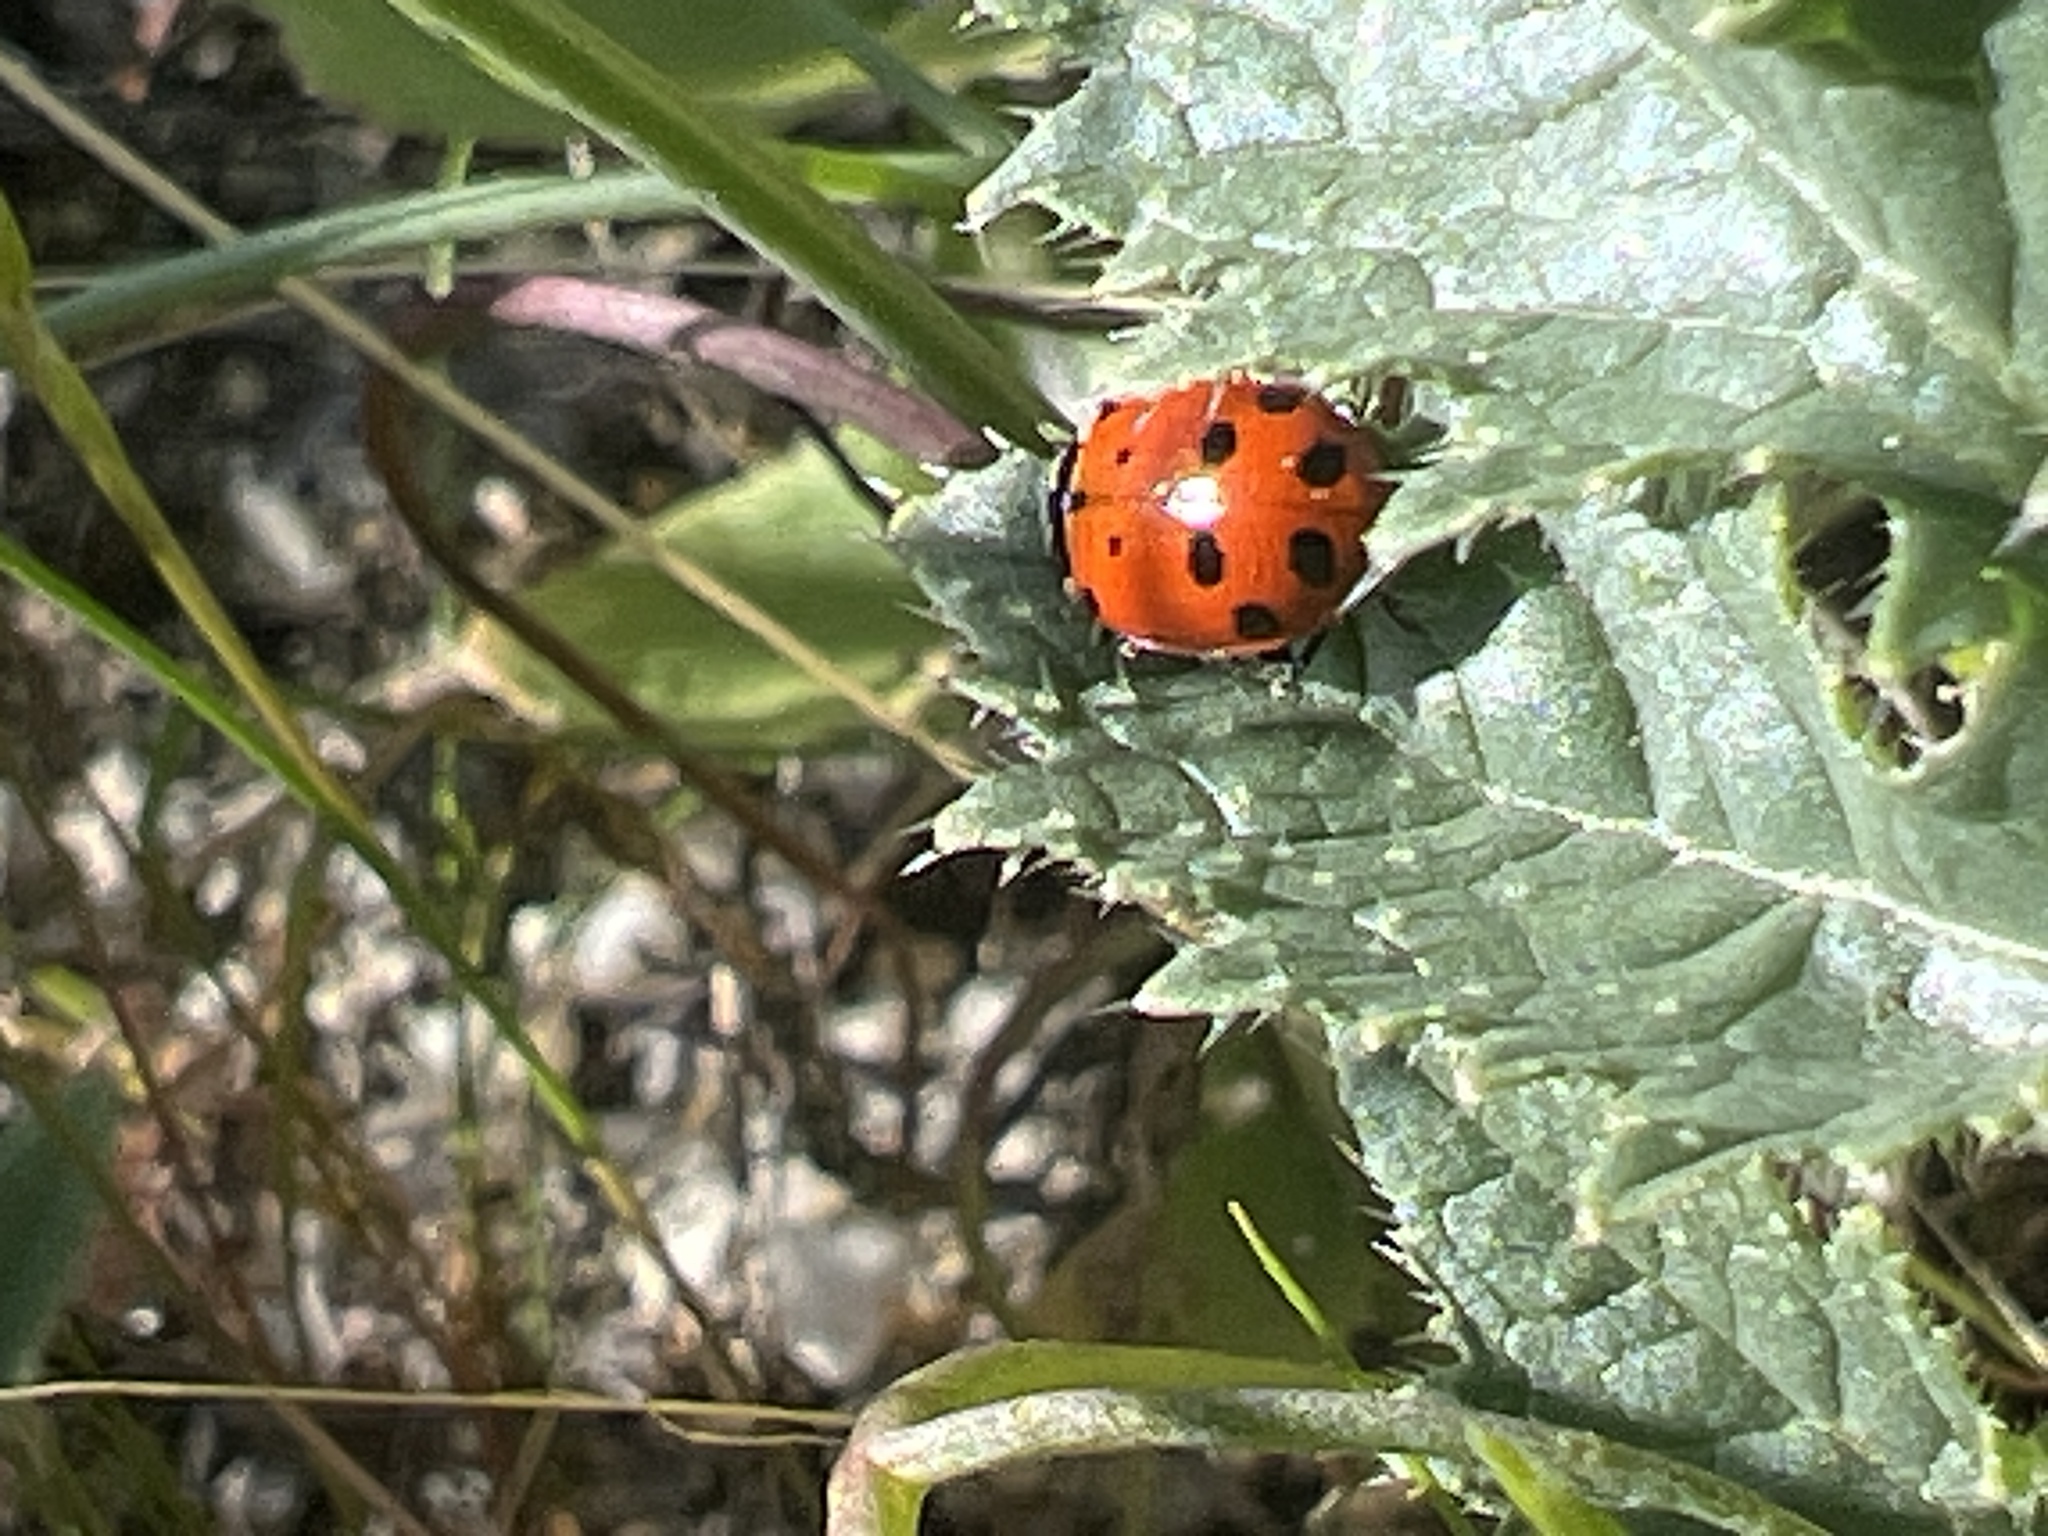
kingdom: Animalia
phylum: Arthropoda
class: Insecta
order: Coleoptera
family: Coccinellidae
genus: Hippodamia
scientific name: Hippodamia convergens
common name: Convergent lady beetle
